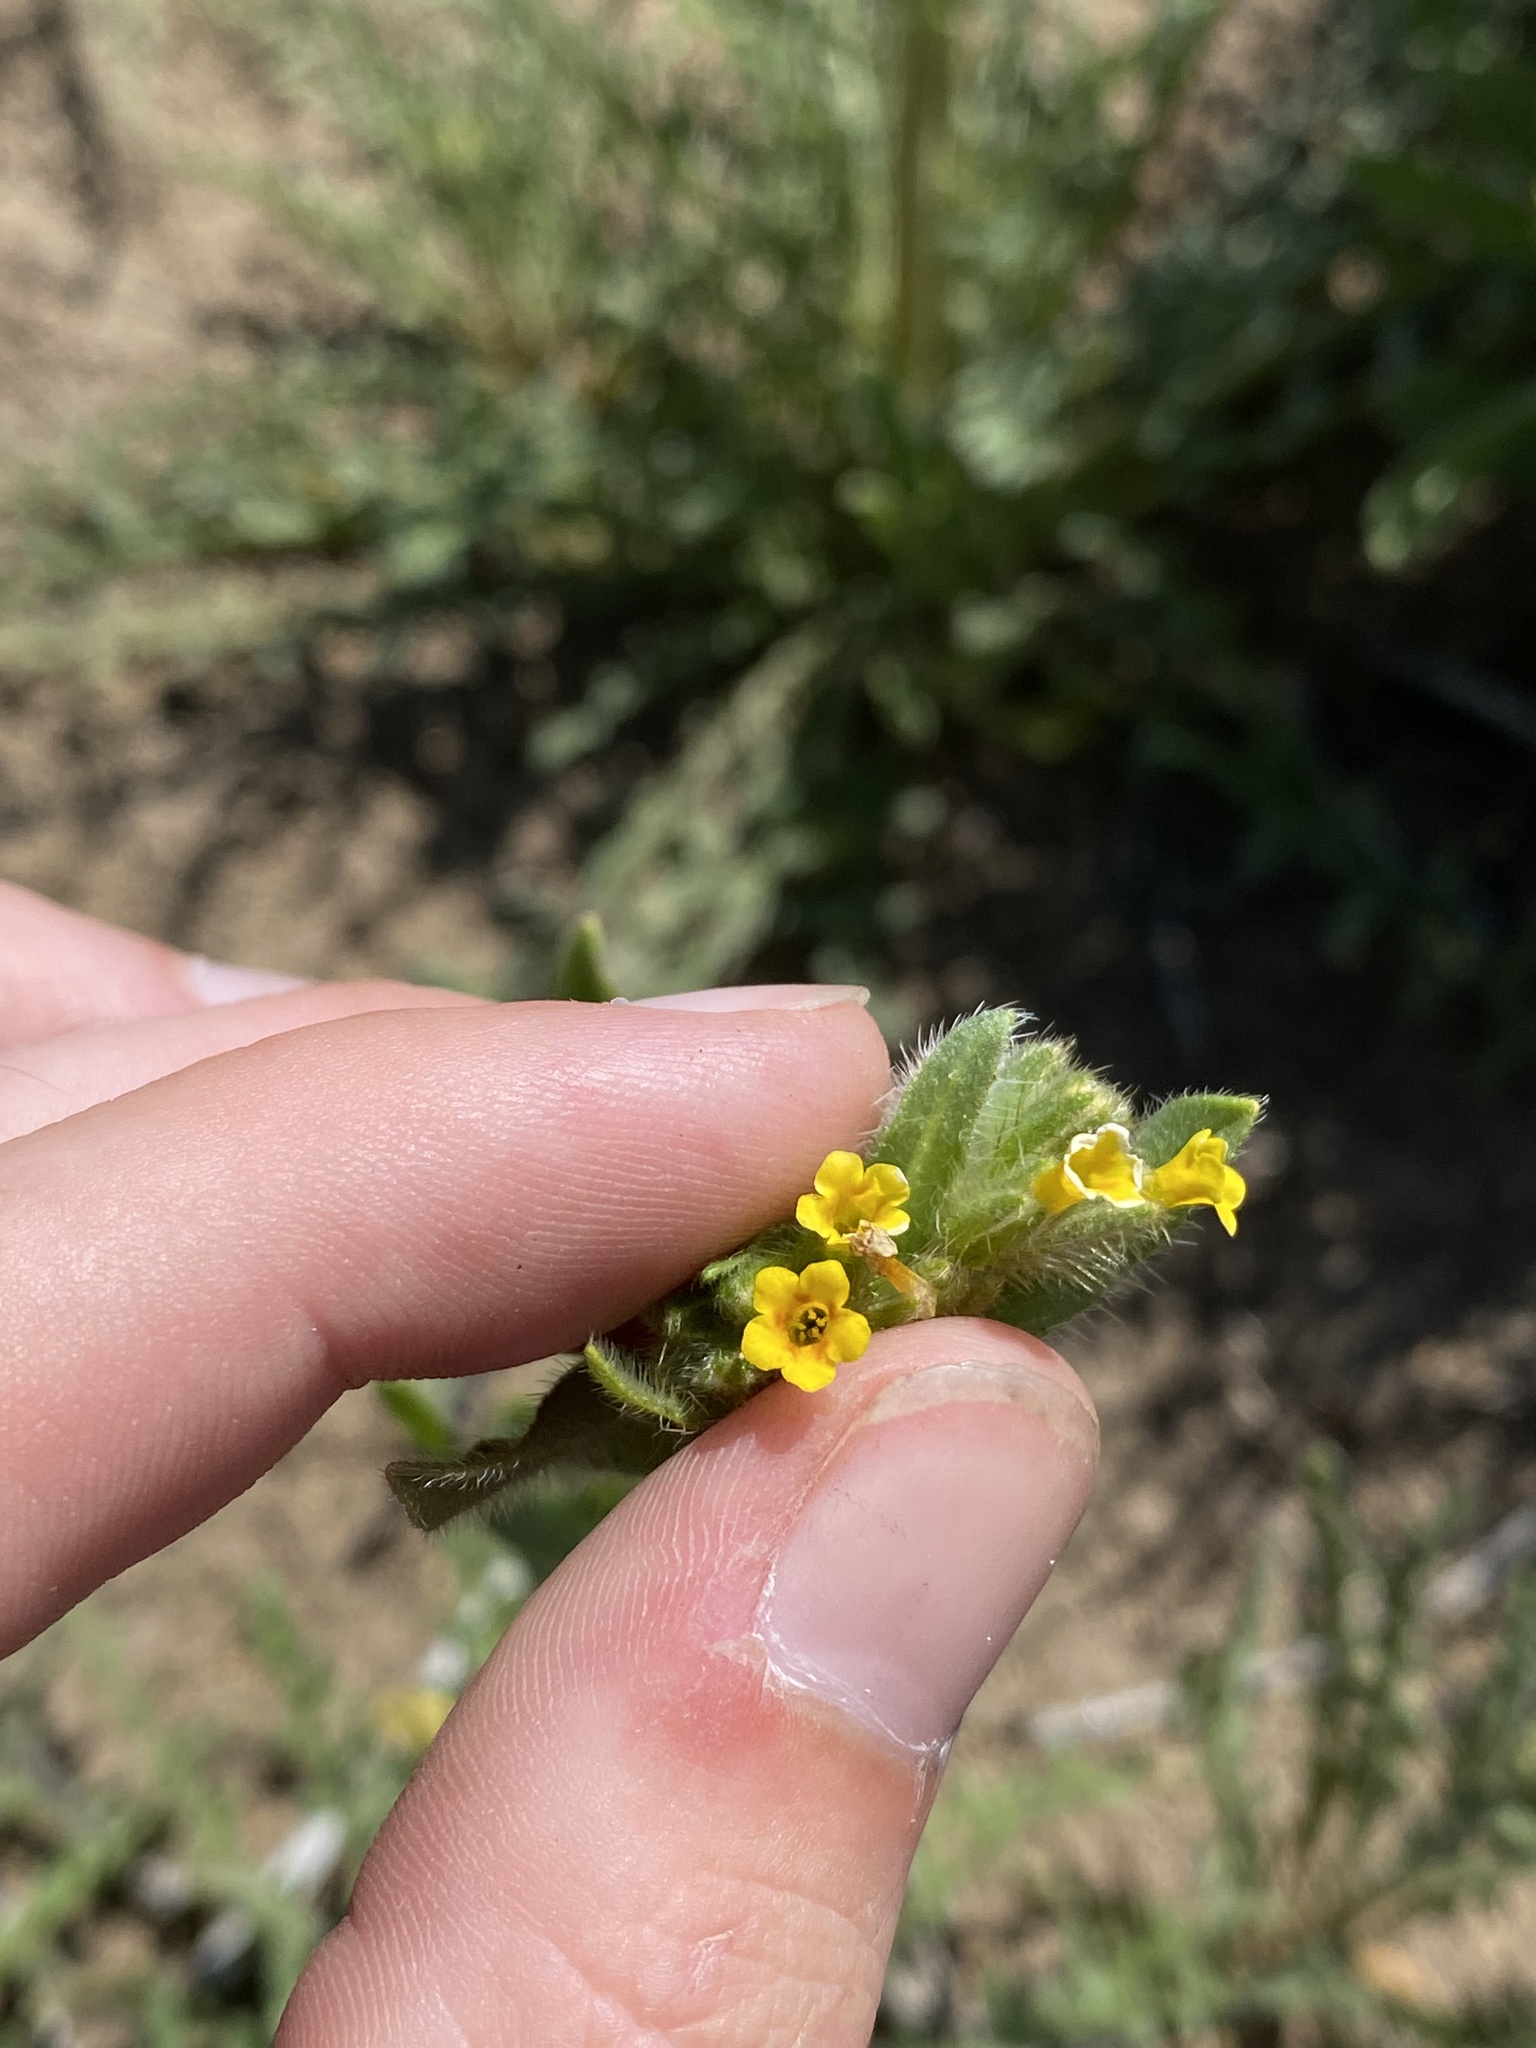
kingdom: Plantae
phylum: Tracheophyta
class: Magnoliopsida
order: Boraginales
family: Boraginaceae
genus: Amsinckia
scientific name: Amsinckia tessellata
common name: Tessellate fiddleneck
